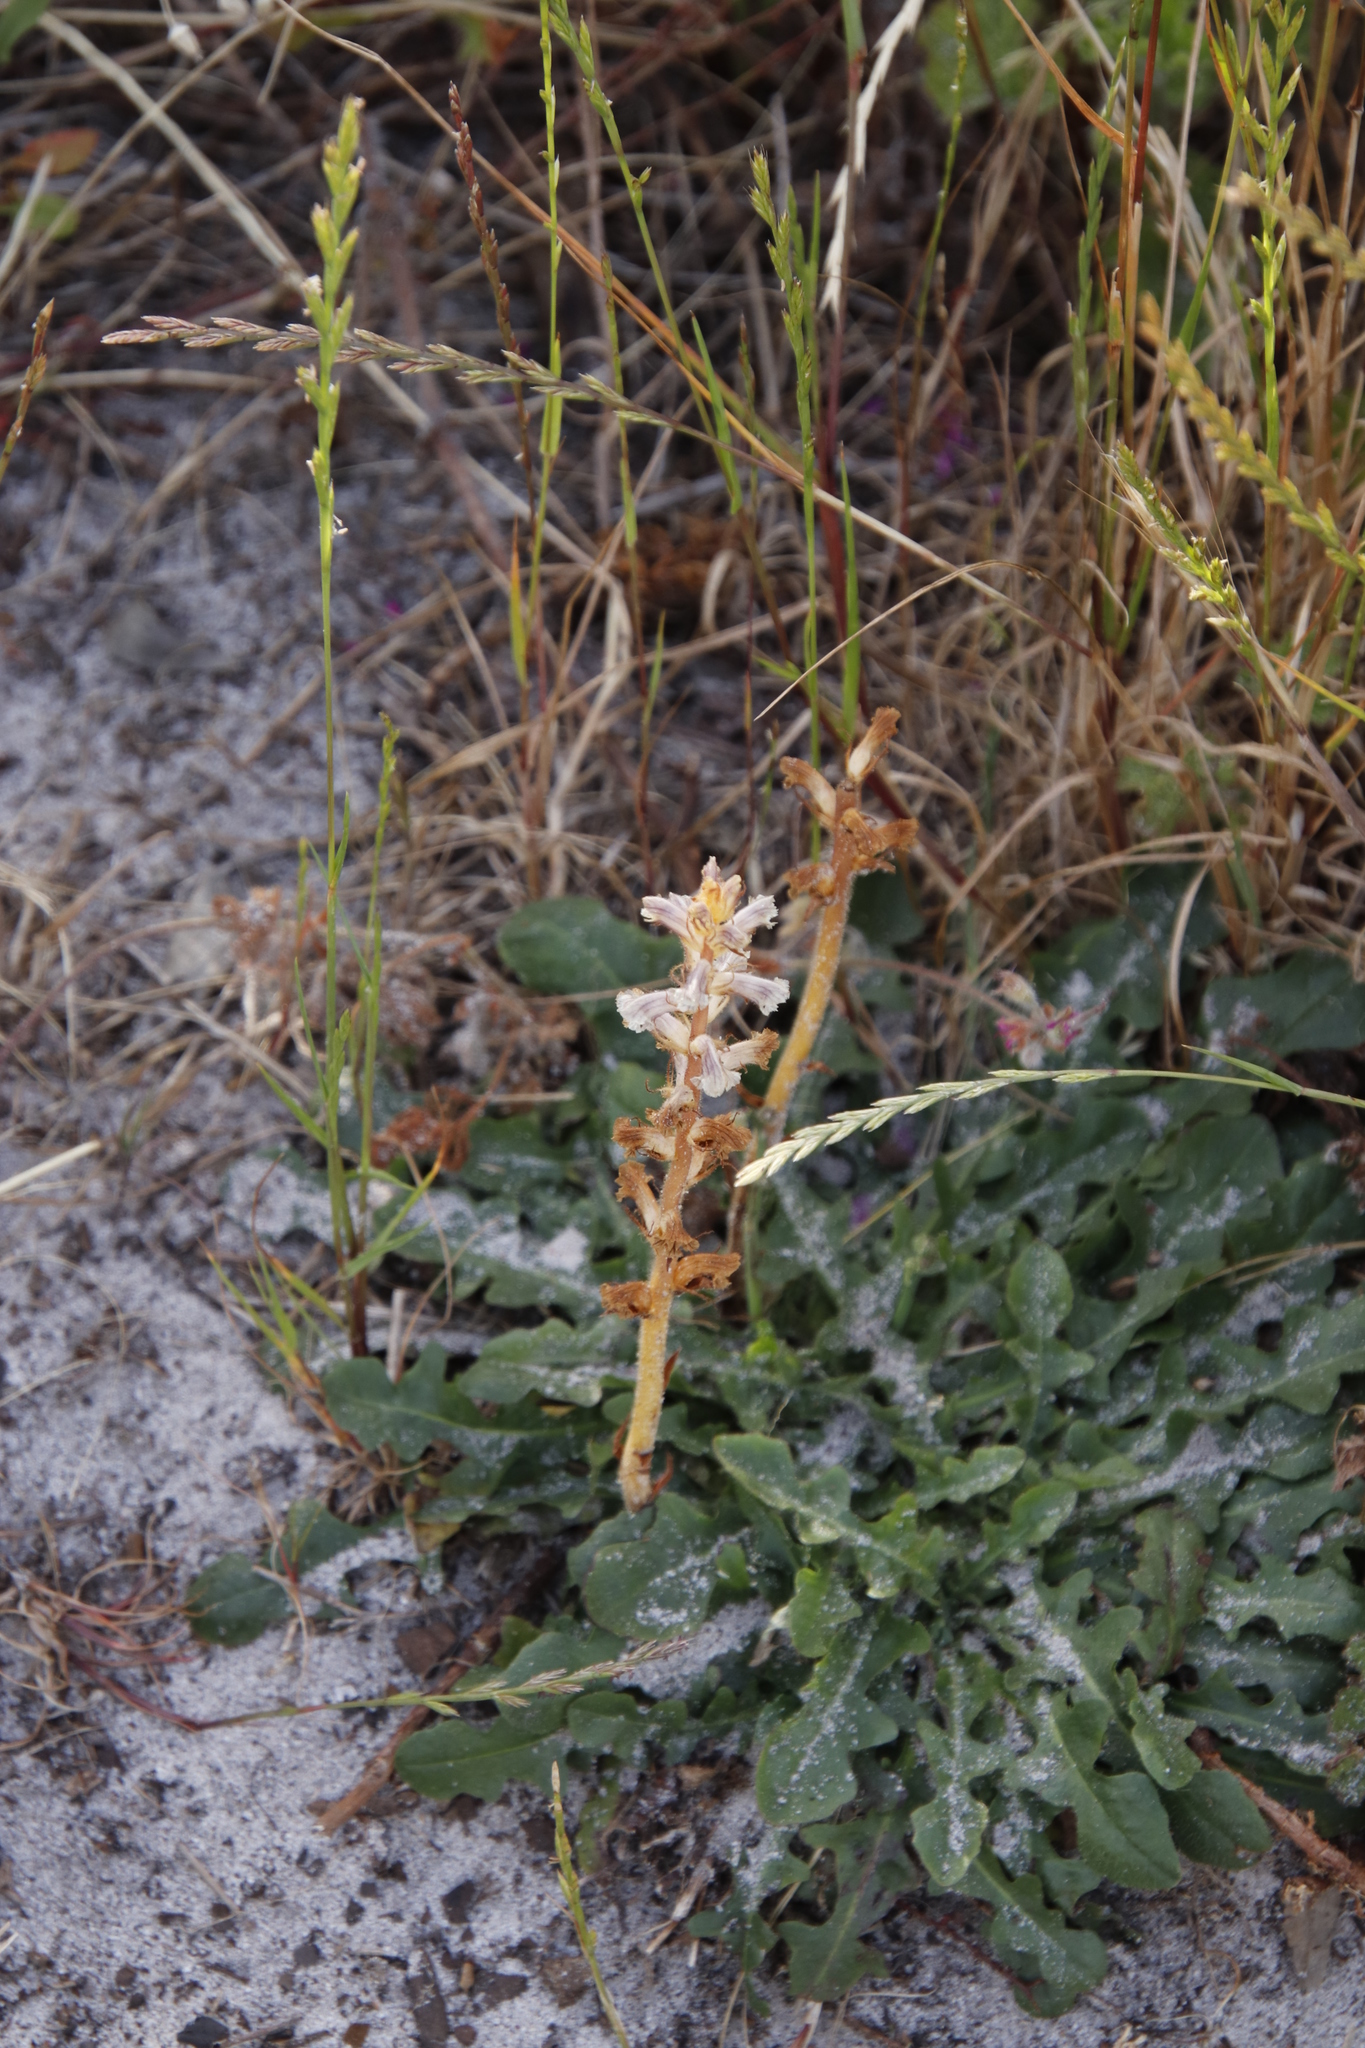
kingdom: Plantae
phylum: Tracheophyta
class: Magnoliopsida
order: Lamiales
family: Orobanchaceae
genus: Orobanche
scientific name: Orobanche minor
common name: Common broomrape
